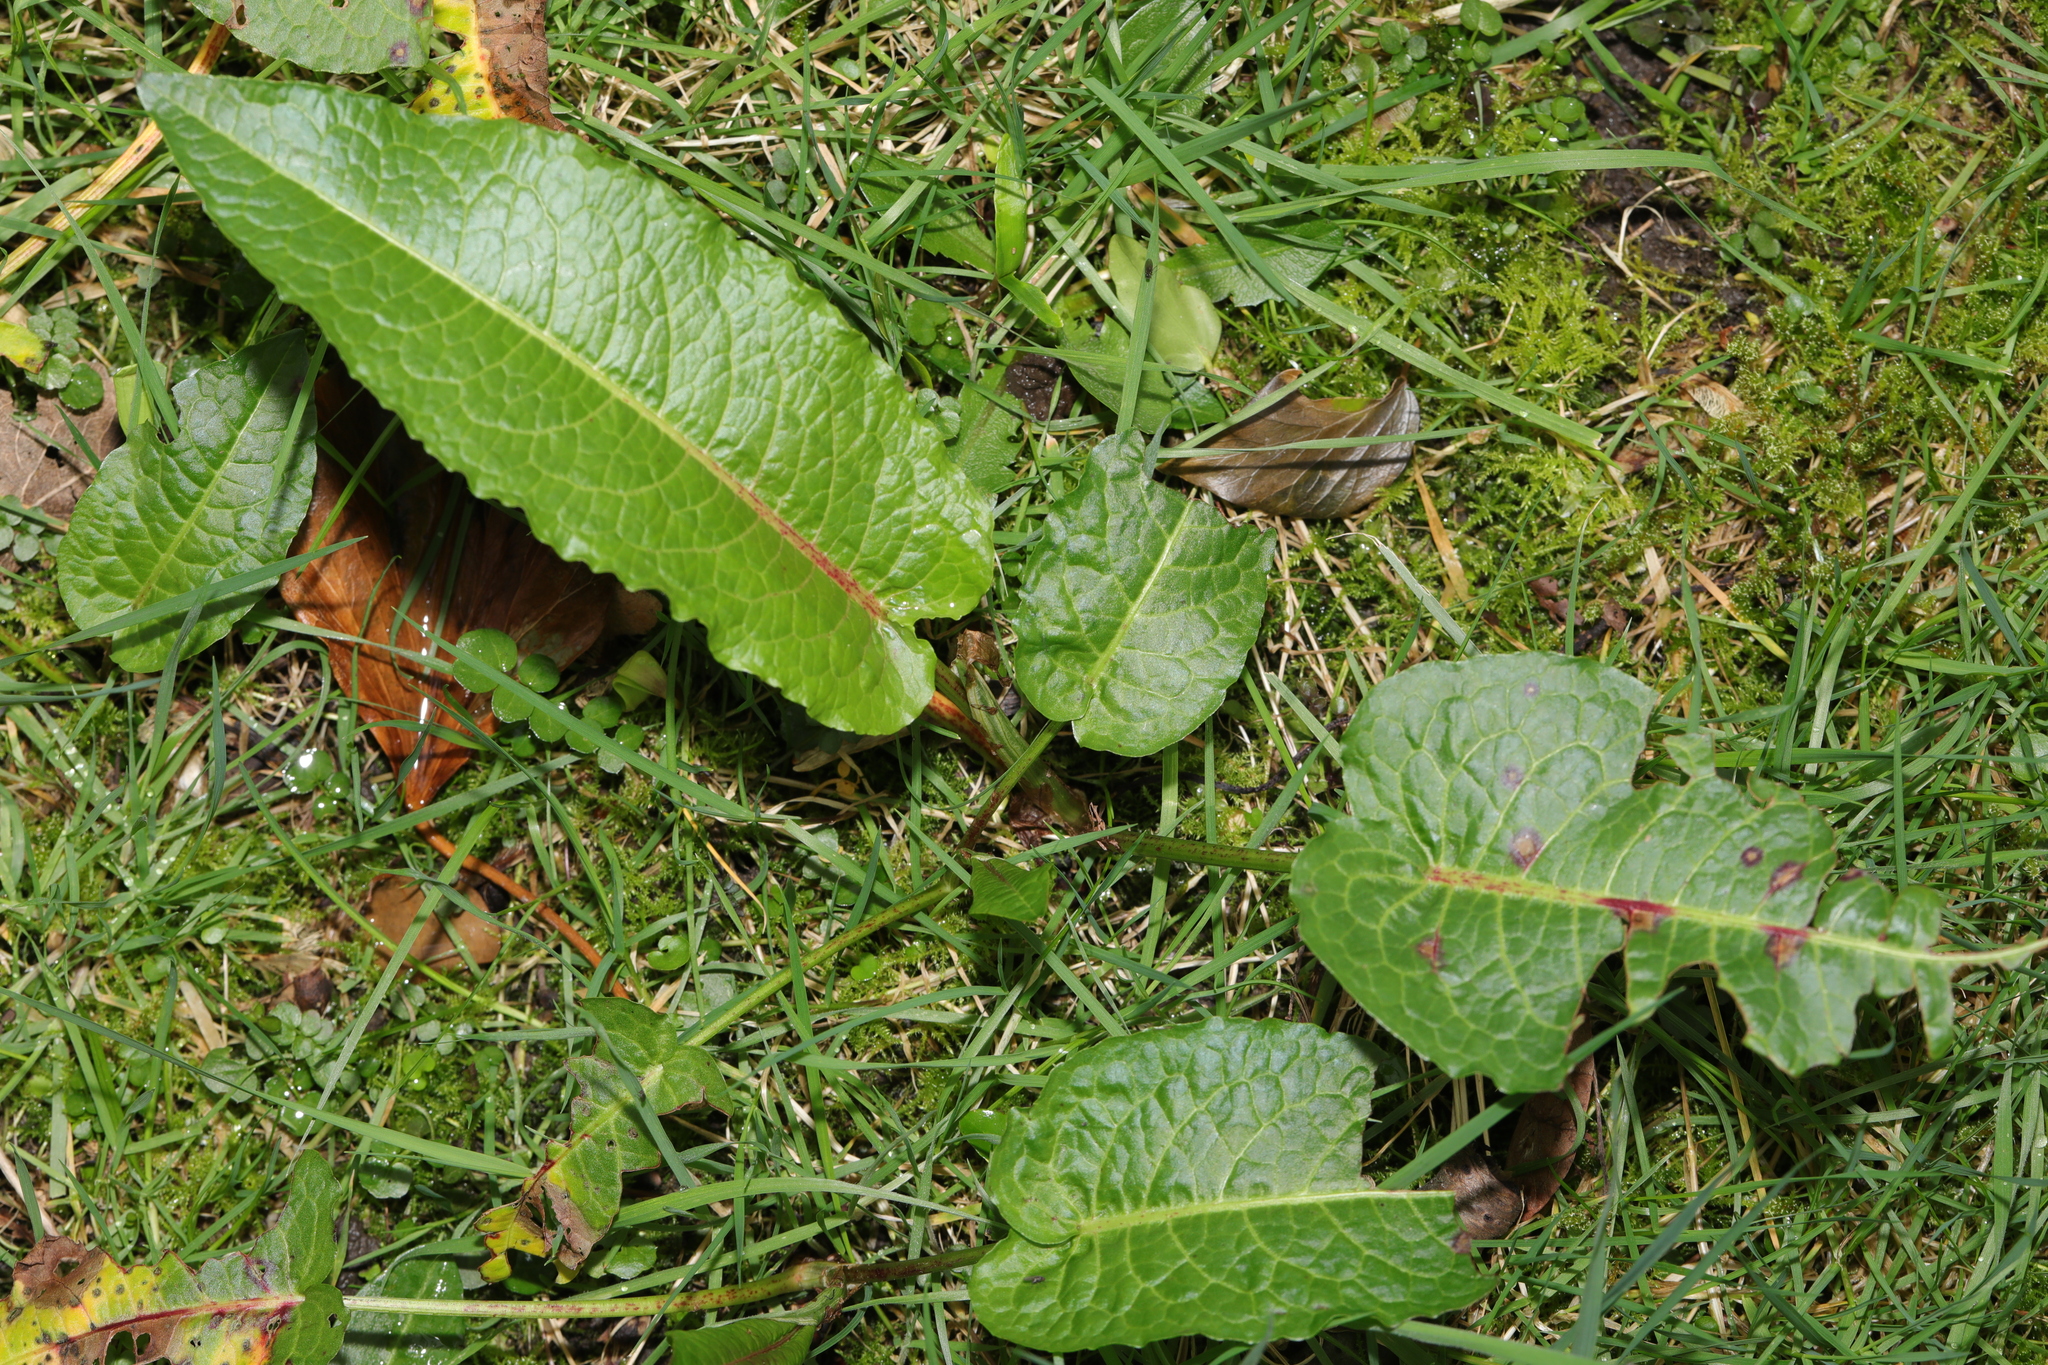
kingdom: Plantae
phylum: Tracheophyta
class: Magnoliopsida
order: Caryophyllales
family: Polygonaceae
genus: Rumex
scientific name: Rumex obtusifolius
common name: Bitter dock
